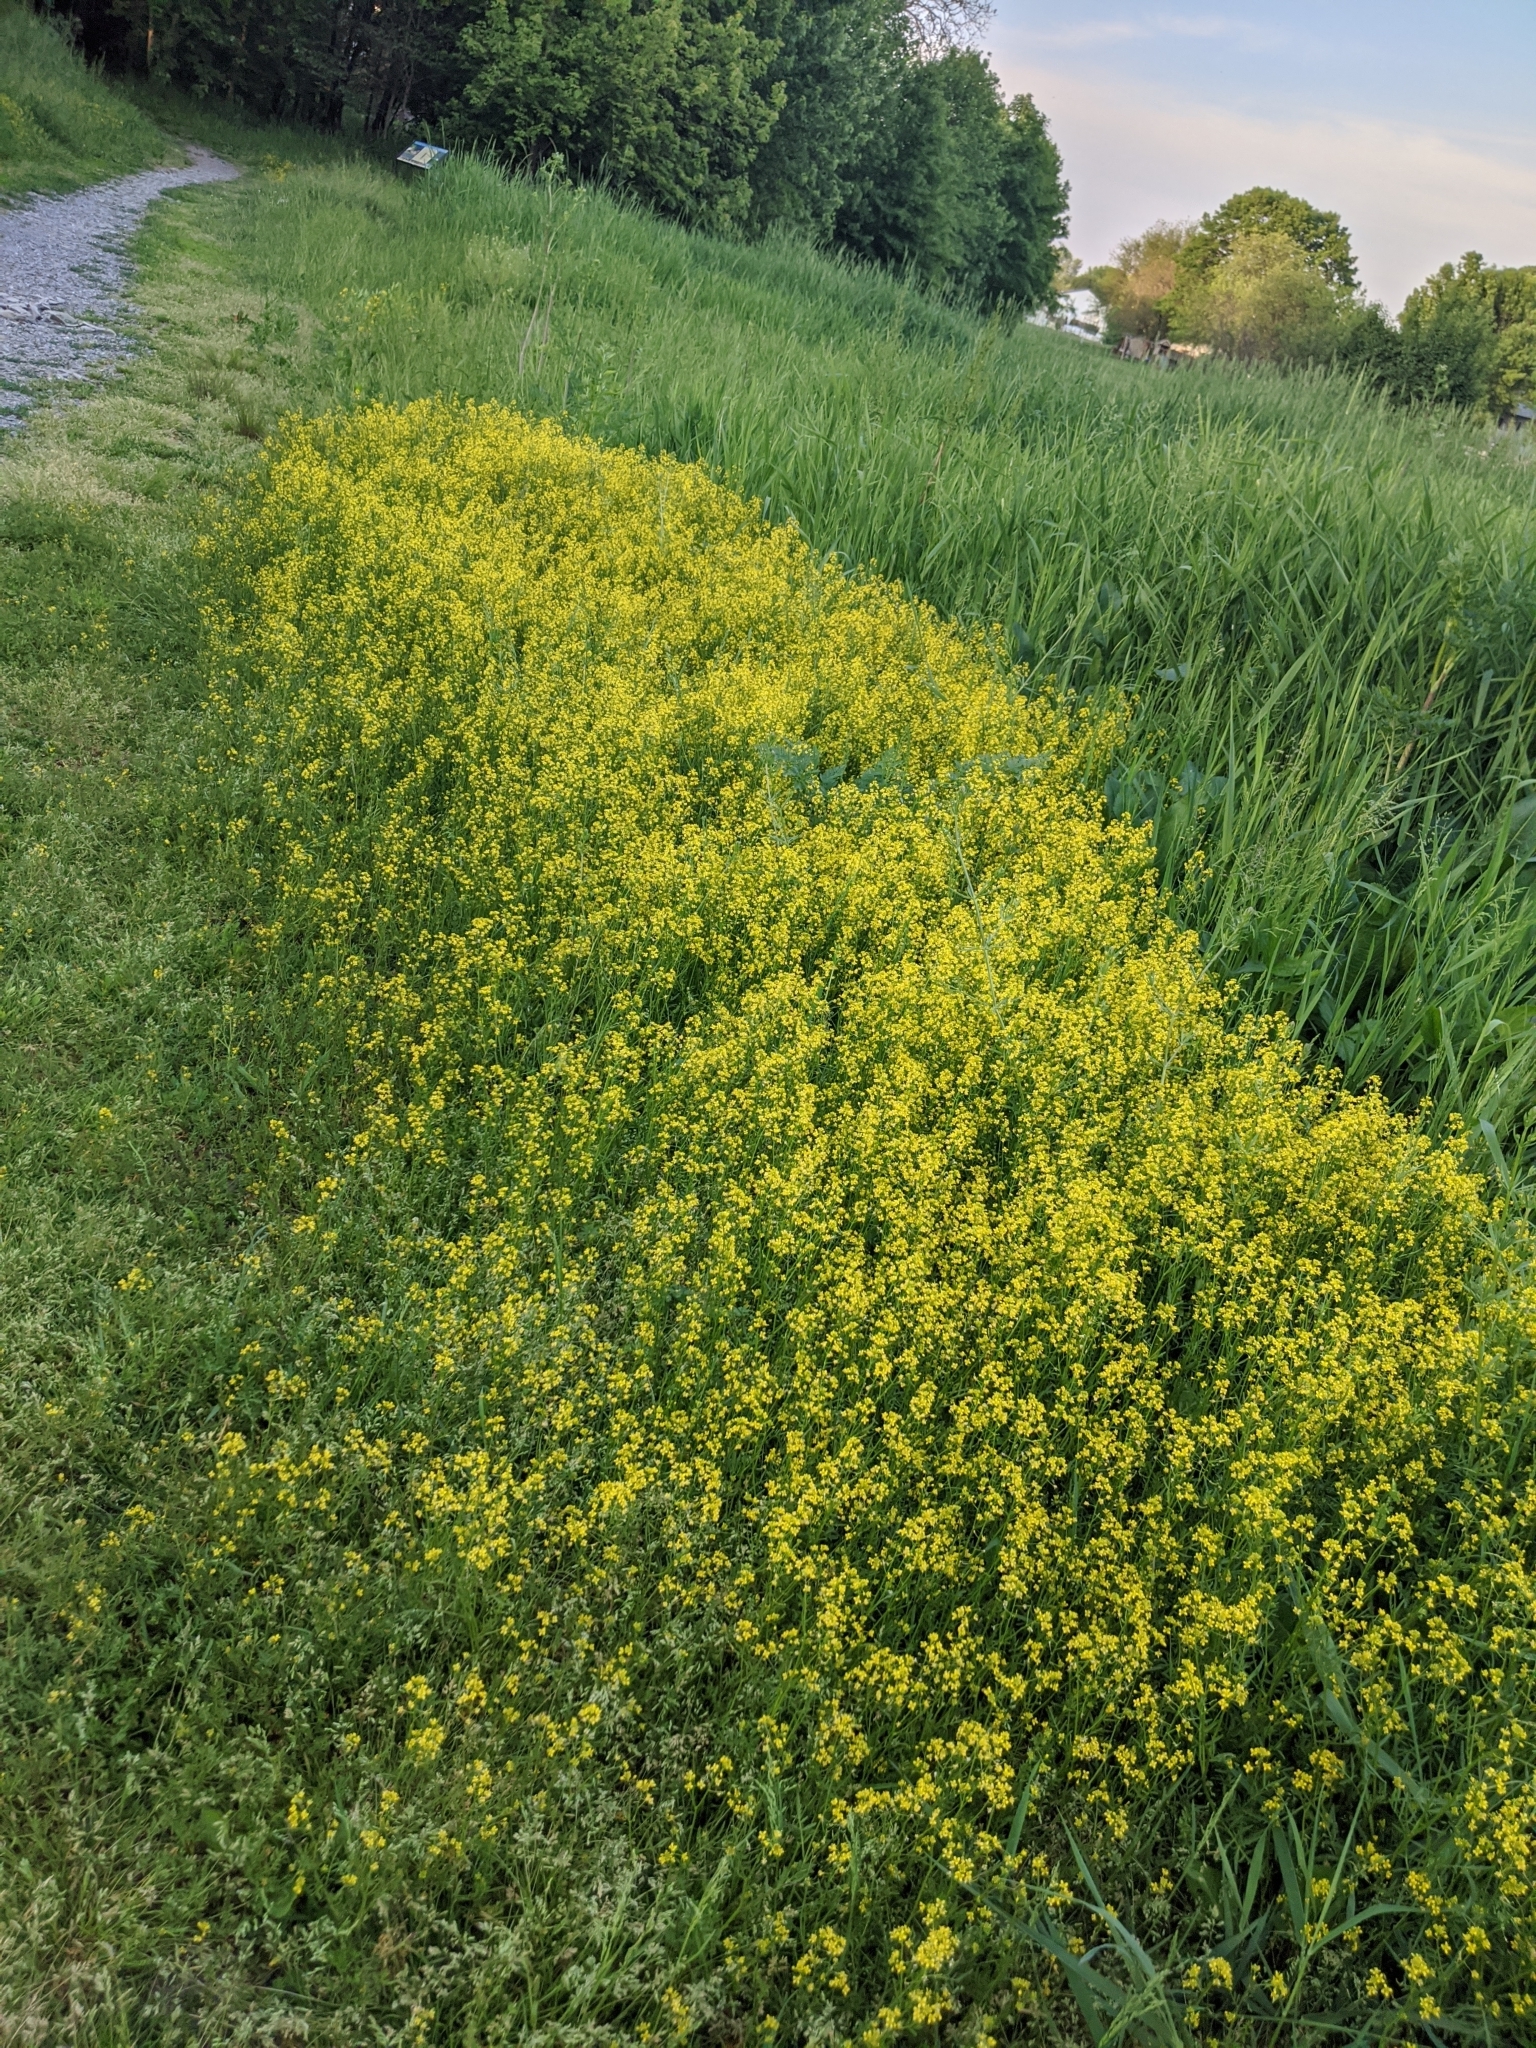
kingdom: Plantae
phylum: Tracheophyta
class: Magnoliopsida
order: Brassicales
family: Brassicaceae
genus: Barbarea
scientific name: Barbarea vulgaris
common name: Cressy-greens
